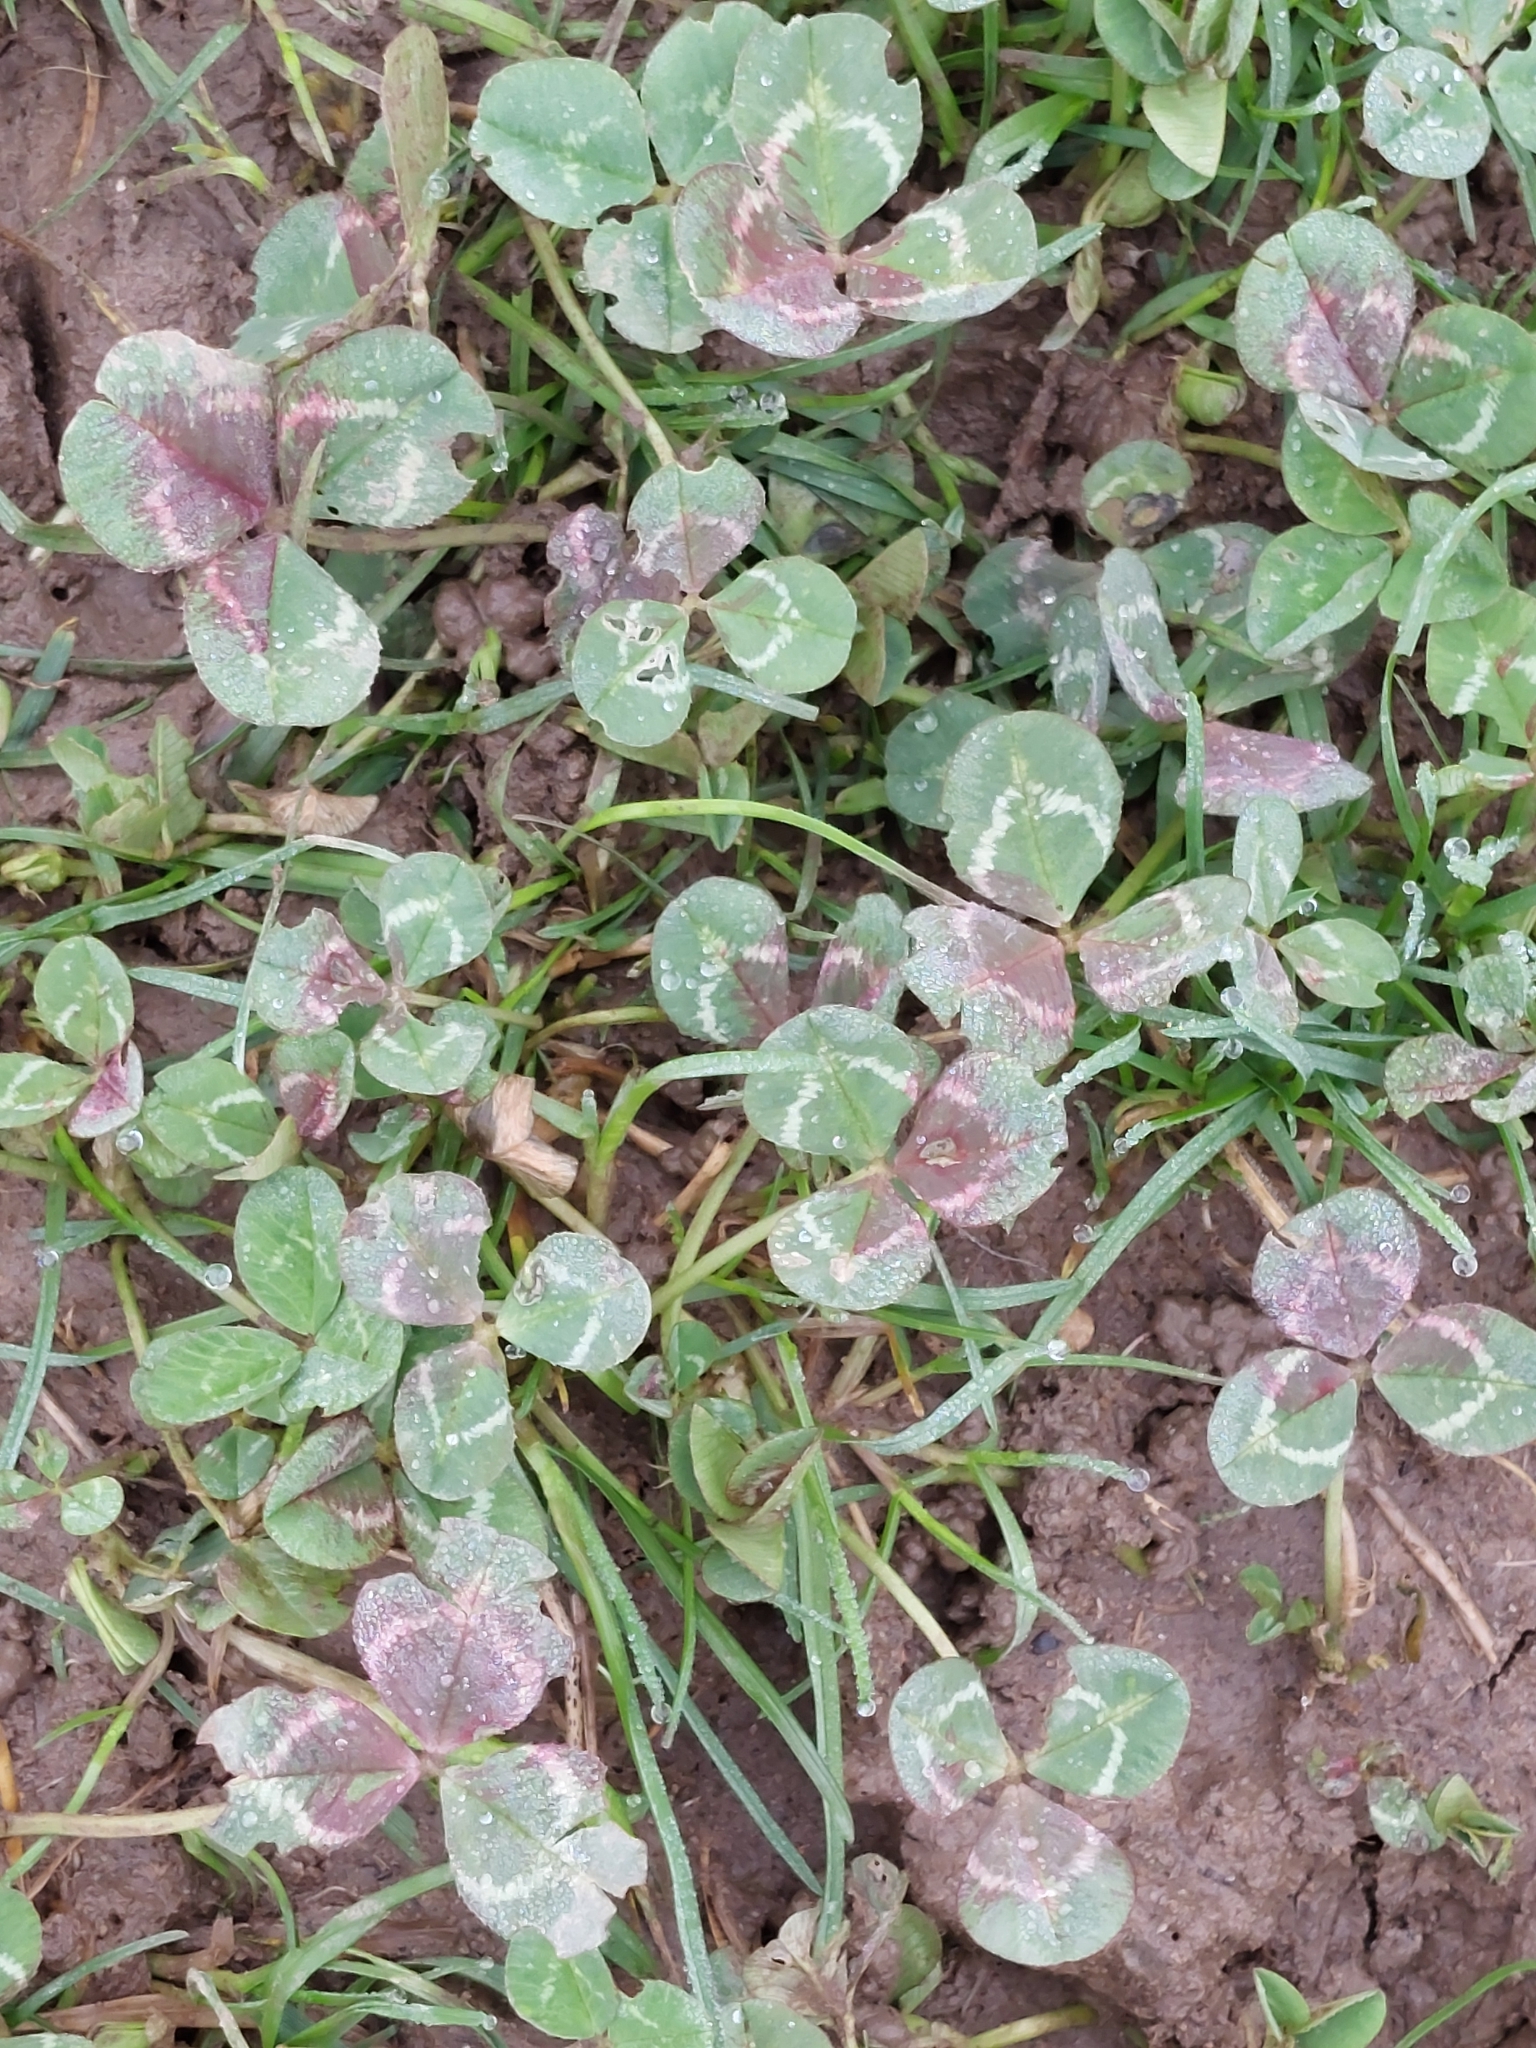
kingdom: Plantae
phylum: Tracheophyta
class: Magnoliopsida
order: Fabales
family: Fabaceae
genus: Trifolium
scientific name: Trifolium repens
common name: White clover
